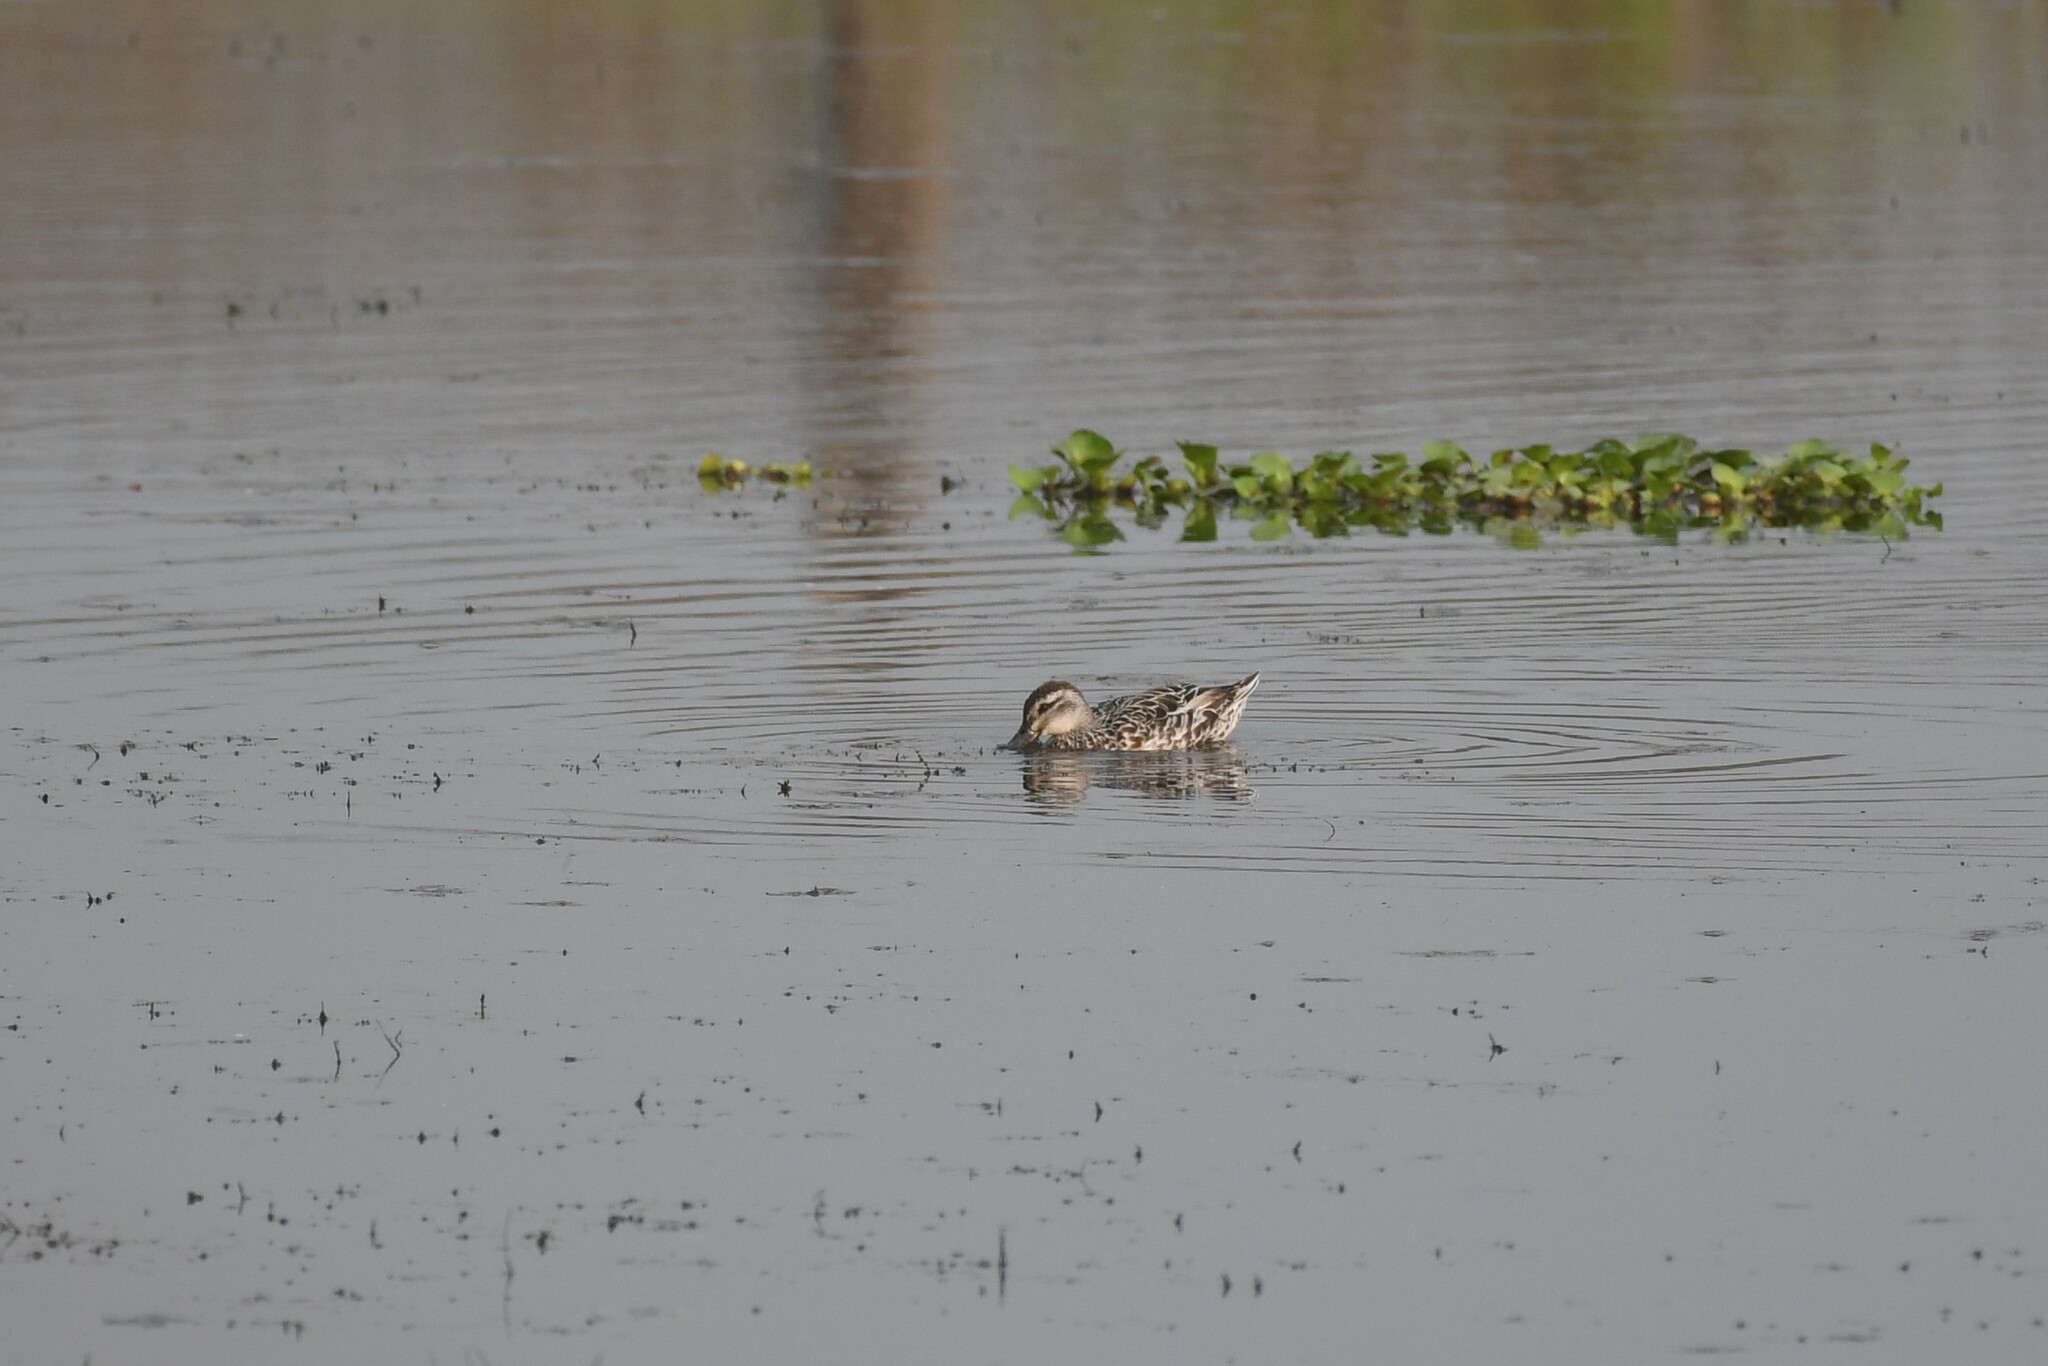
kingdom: Animalia
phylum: Chordata
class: Aves
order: Anseriformes
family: Anatidae
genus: Spatula
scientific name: Spatula querquedula
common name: Garganey
